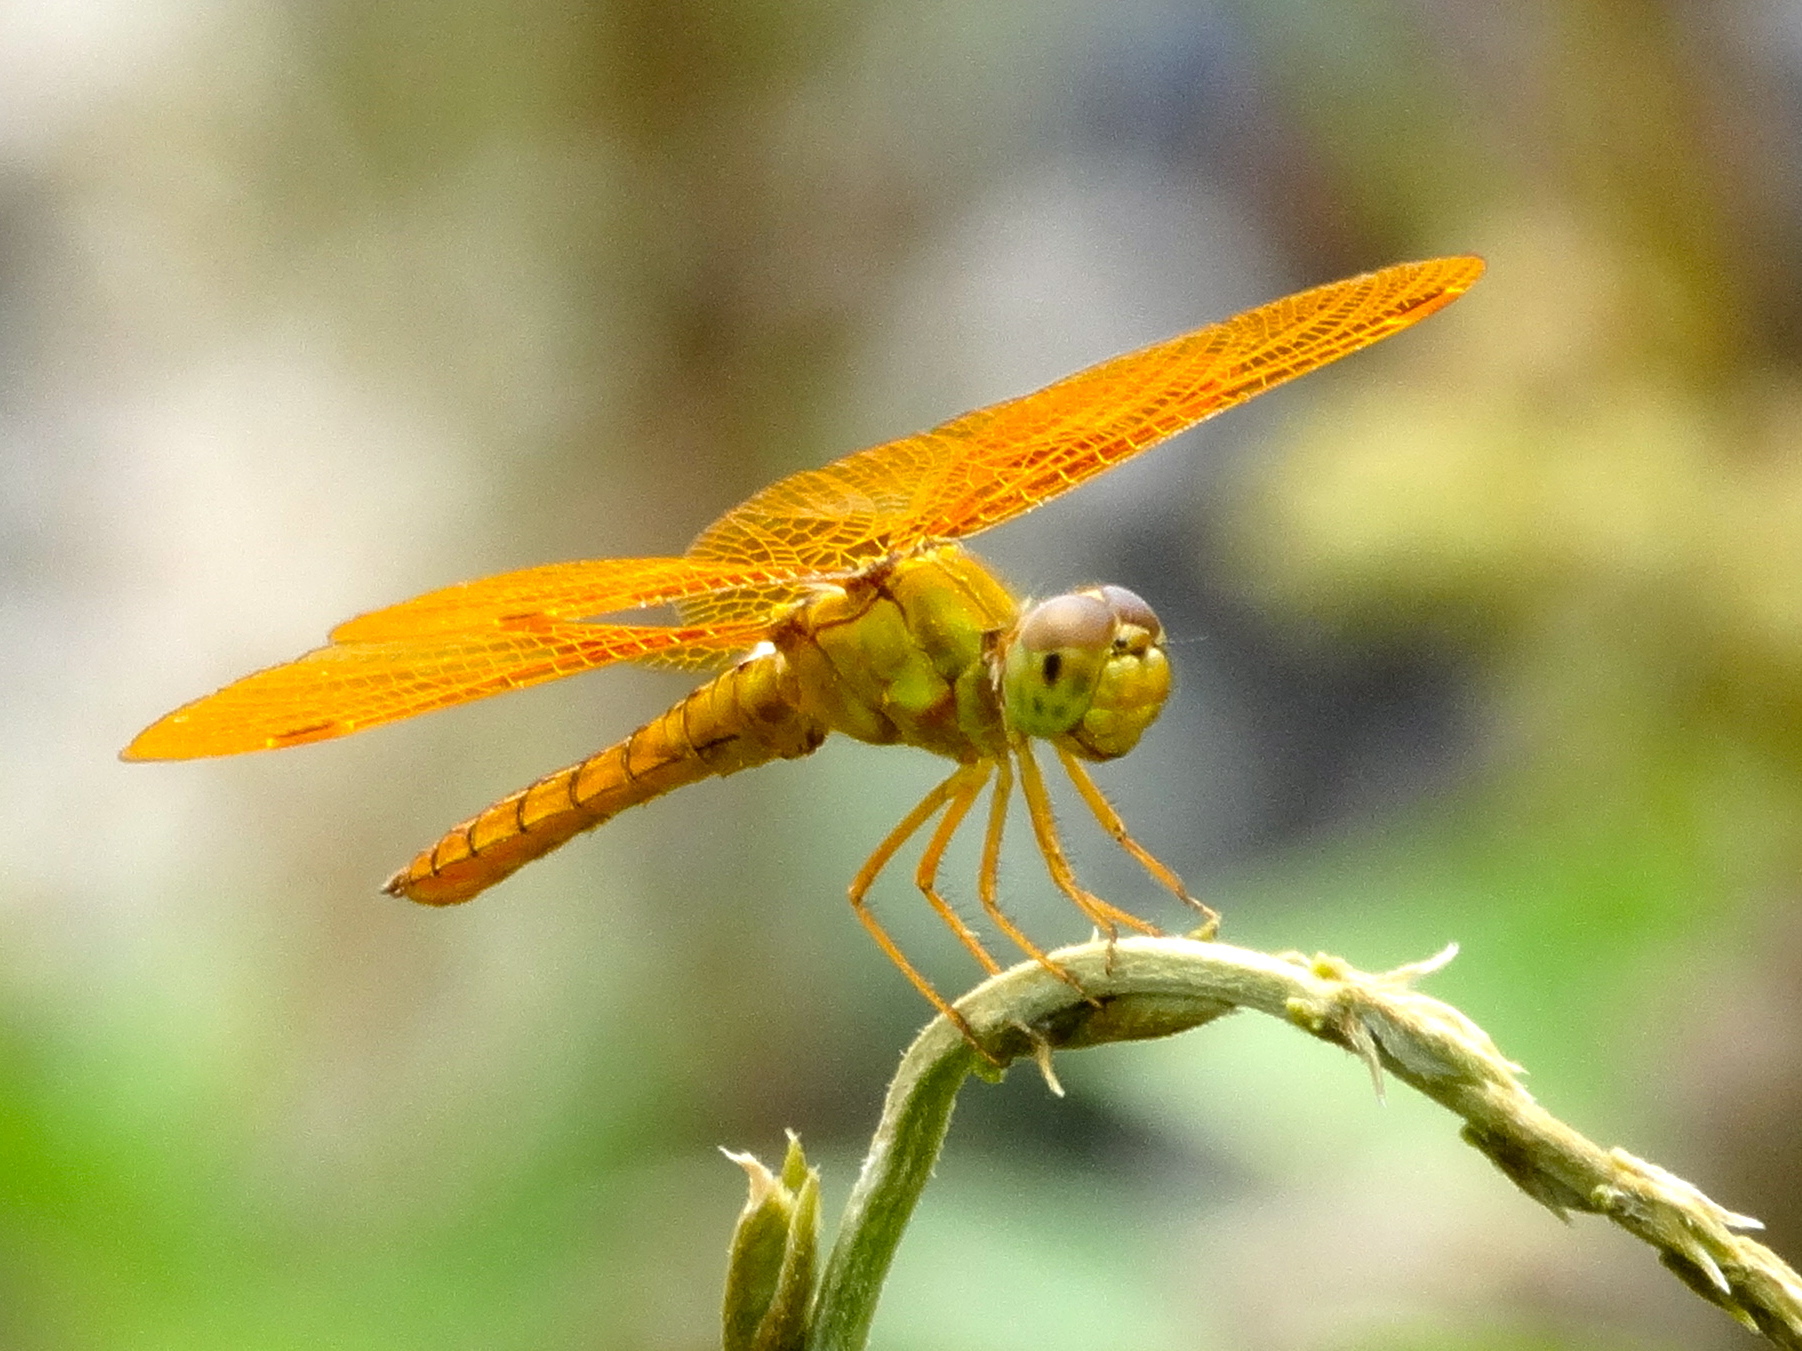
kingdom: Animalia
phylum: Arthropoda
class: Insecta
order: Odonata
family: Libellulidae
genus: Perithemis
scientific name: Perithemis intensa
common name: Mexican amberwing
